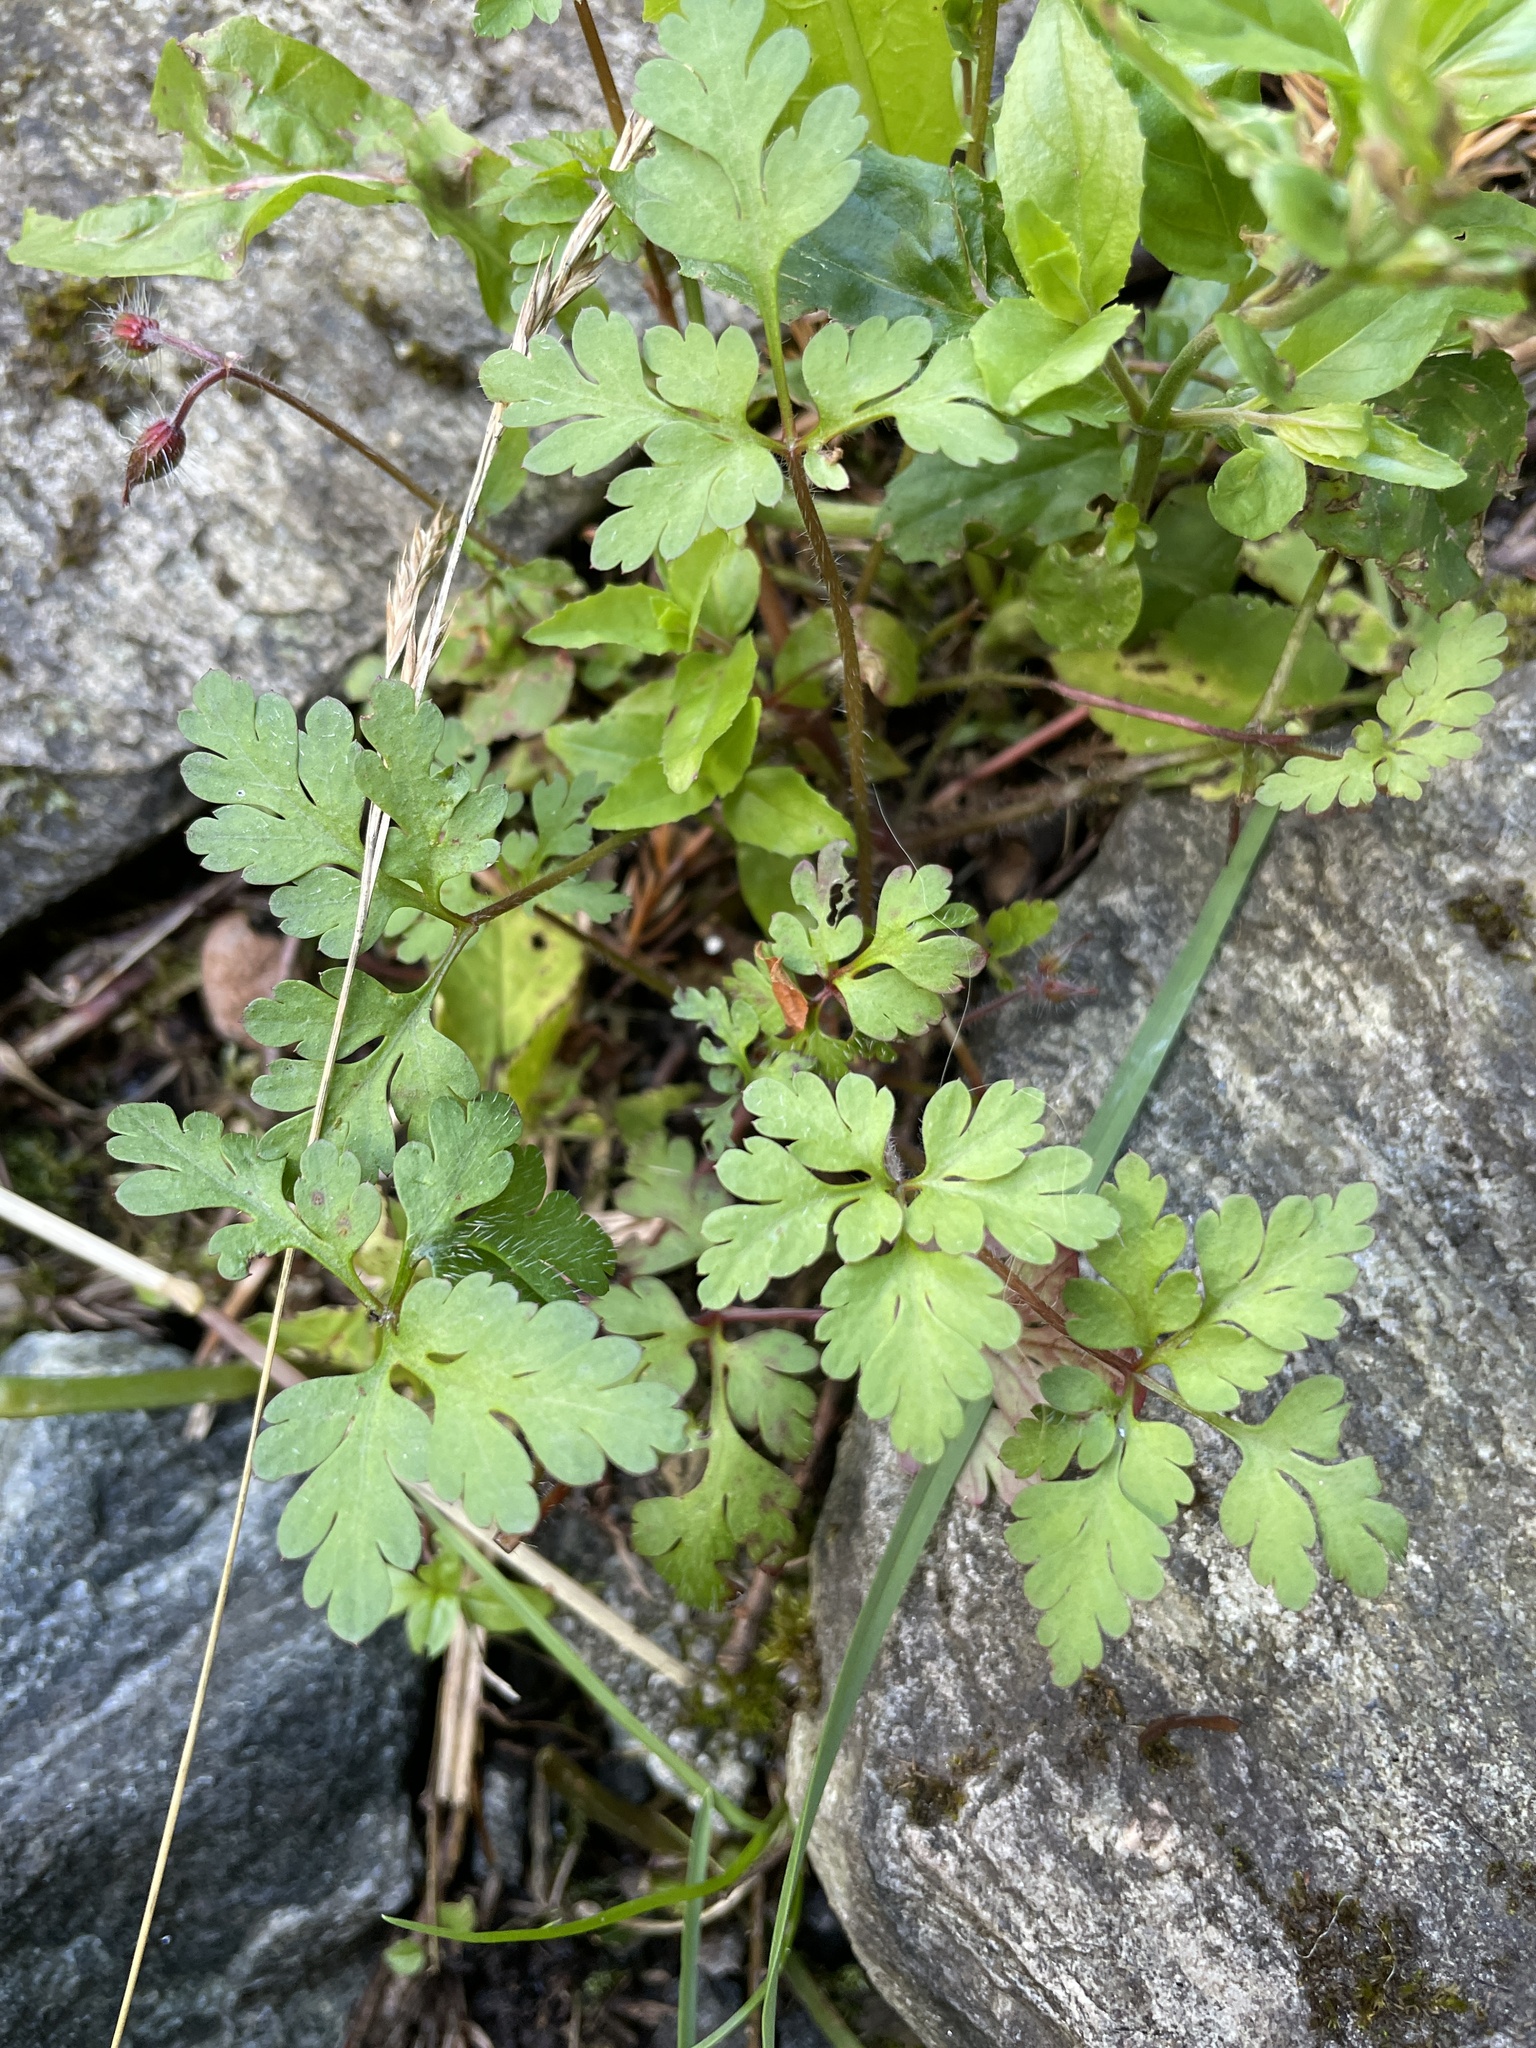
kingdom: Plantae
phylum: Tracheophyta
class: Magnoliopsida
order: Geraniales
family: Geraniaceae
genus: Geranium
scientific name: Geranium robertianum
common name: Herb-robert
